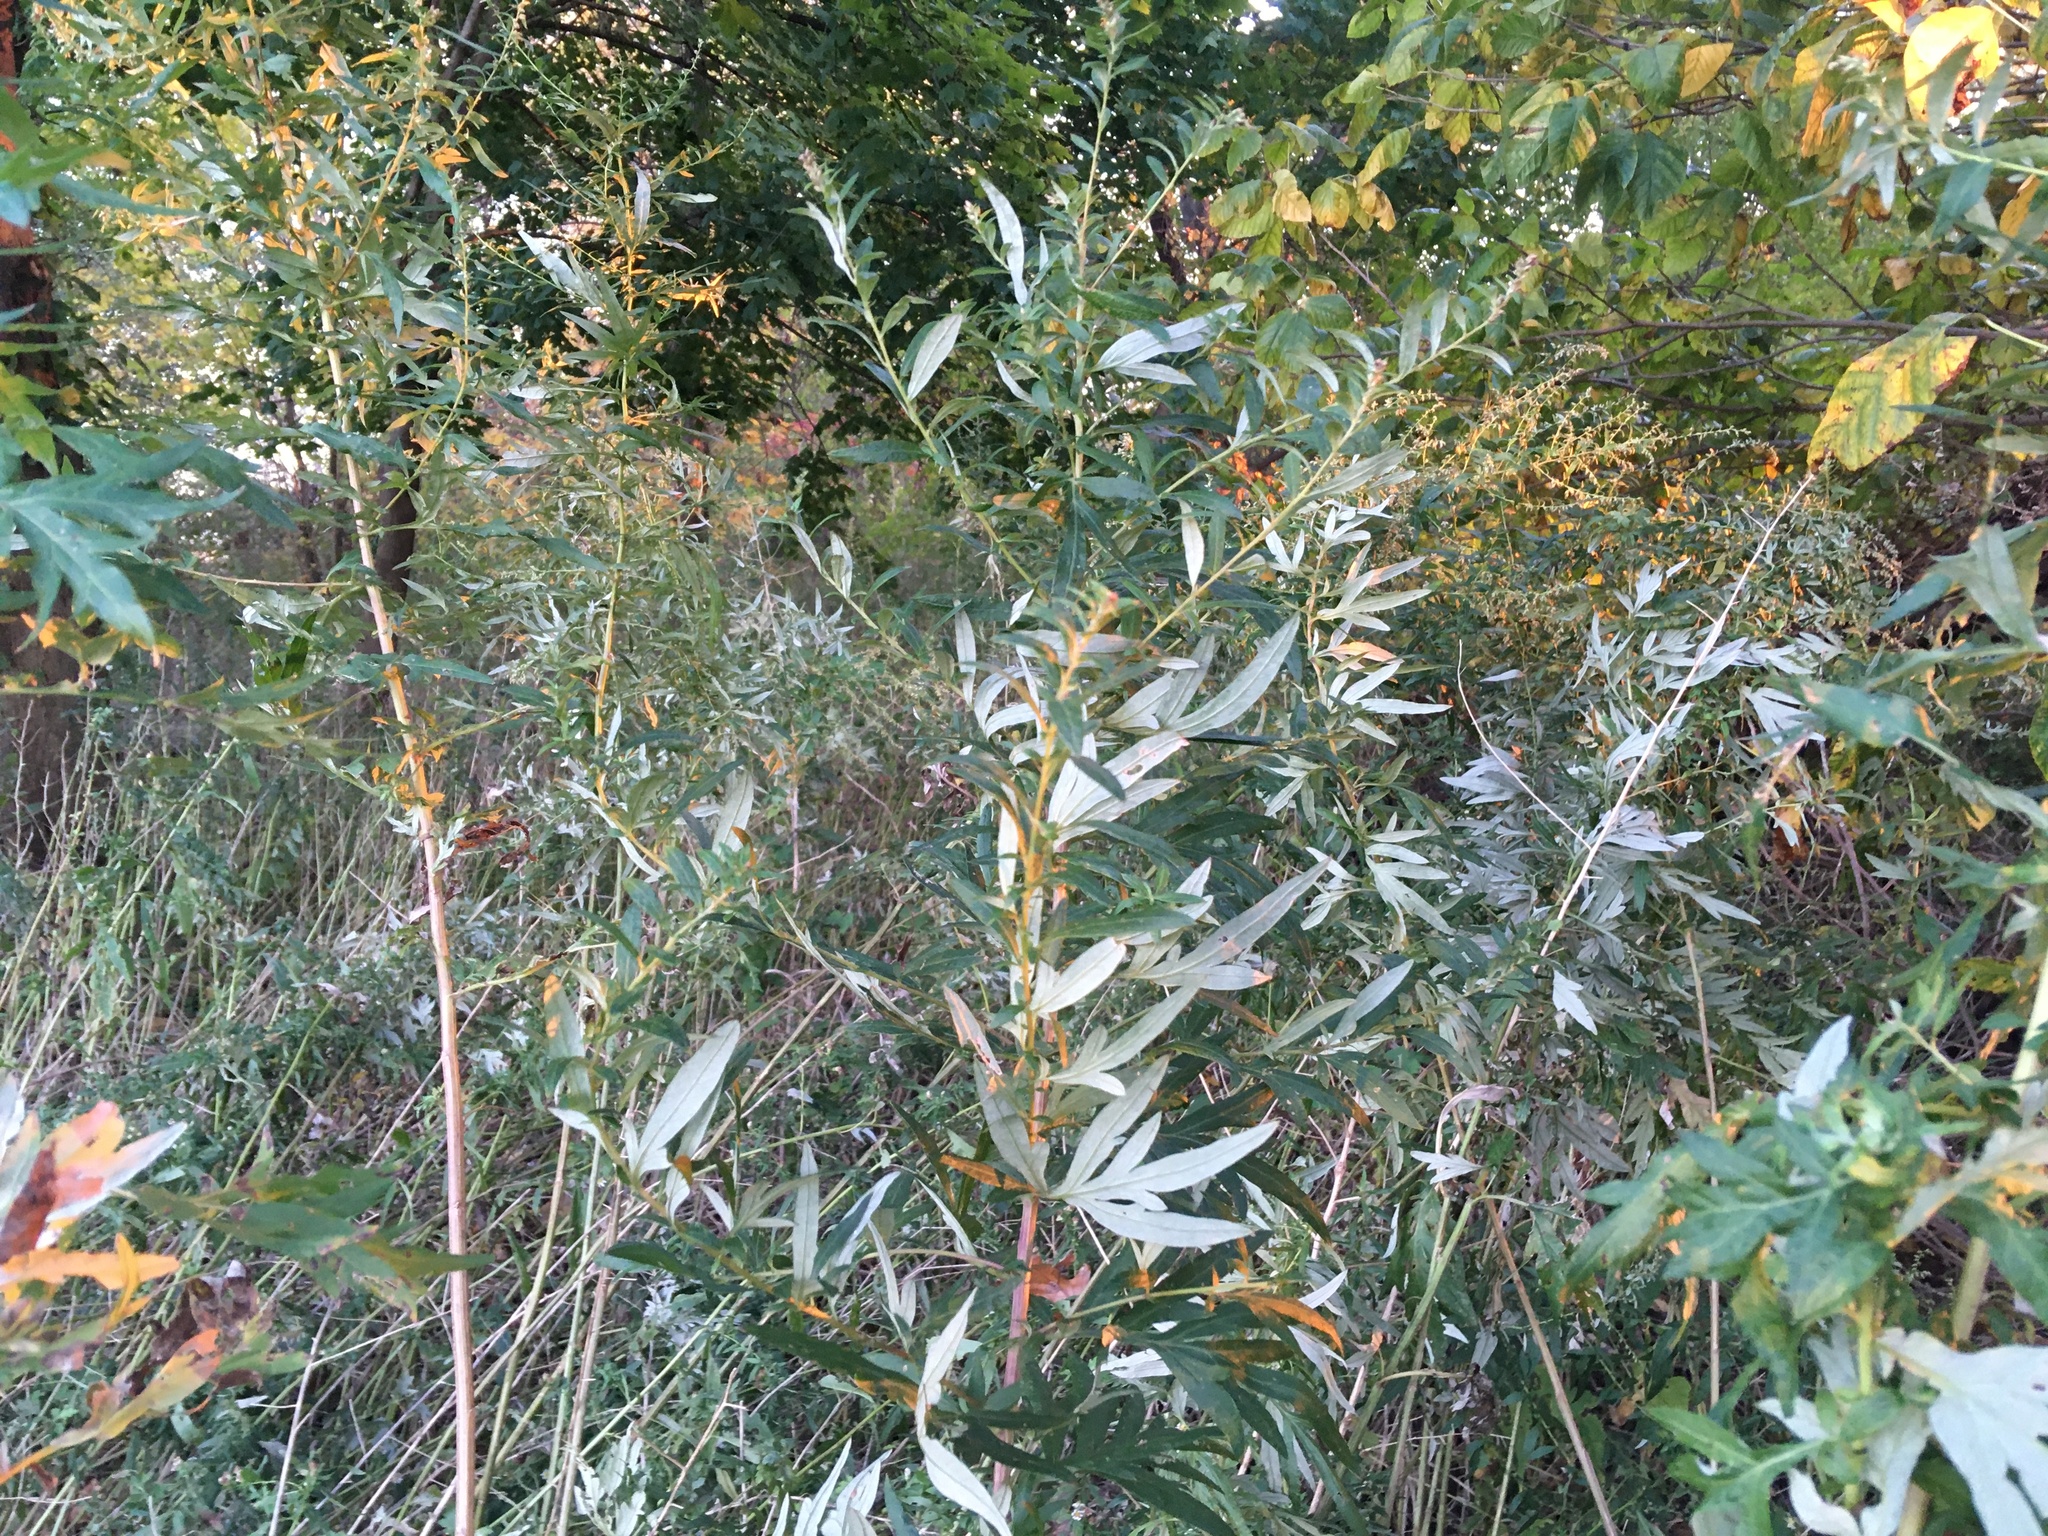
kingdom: Plantae
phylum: Tracheophyta
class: Magnoliopsida
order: Asterales
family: Asteraceae
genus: Artemisia
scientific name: Artemisia vulgaris
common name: Mugwort
